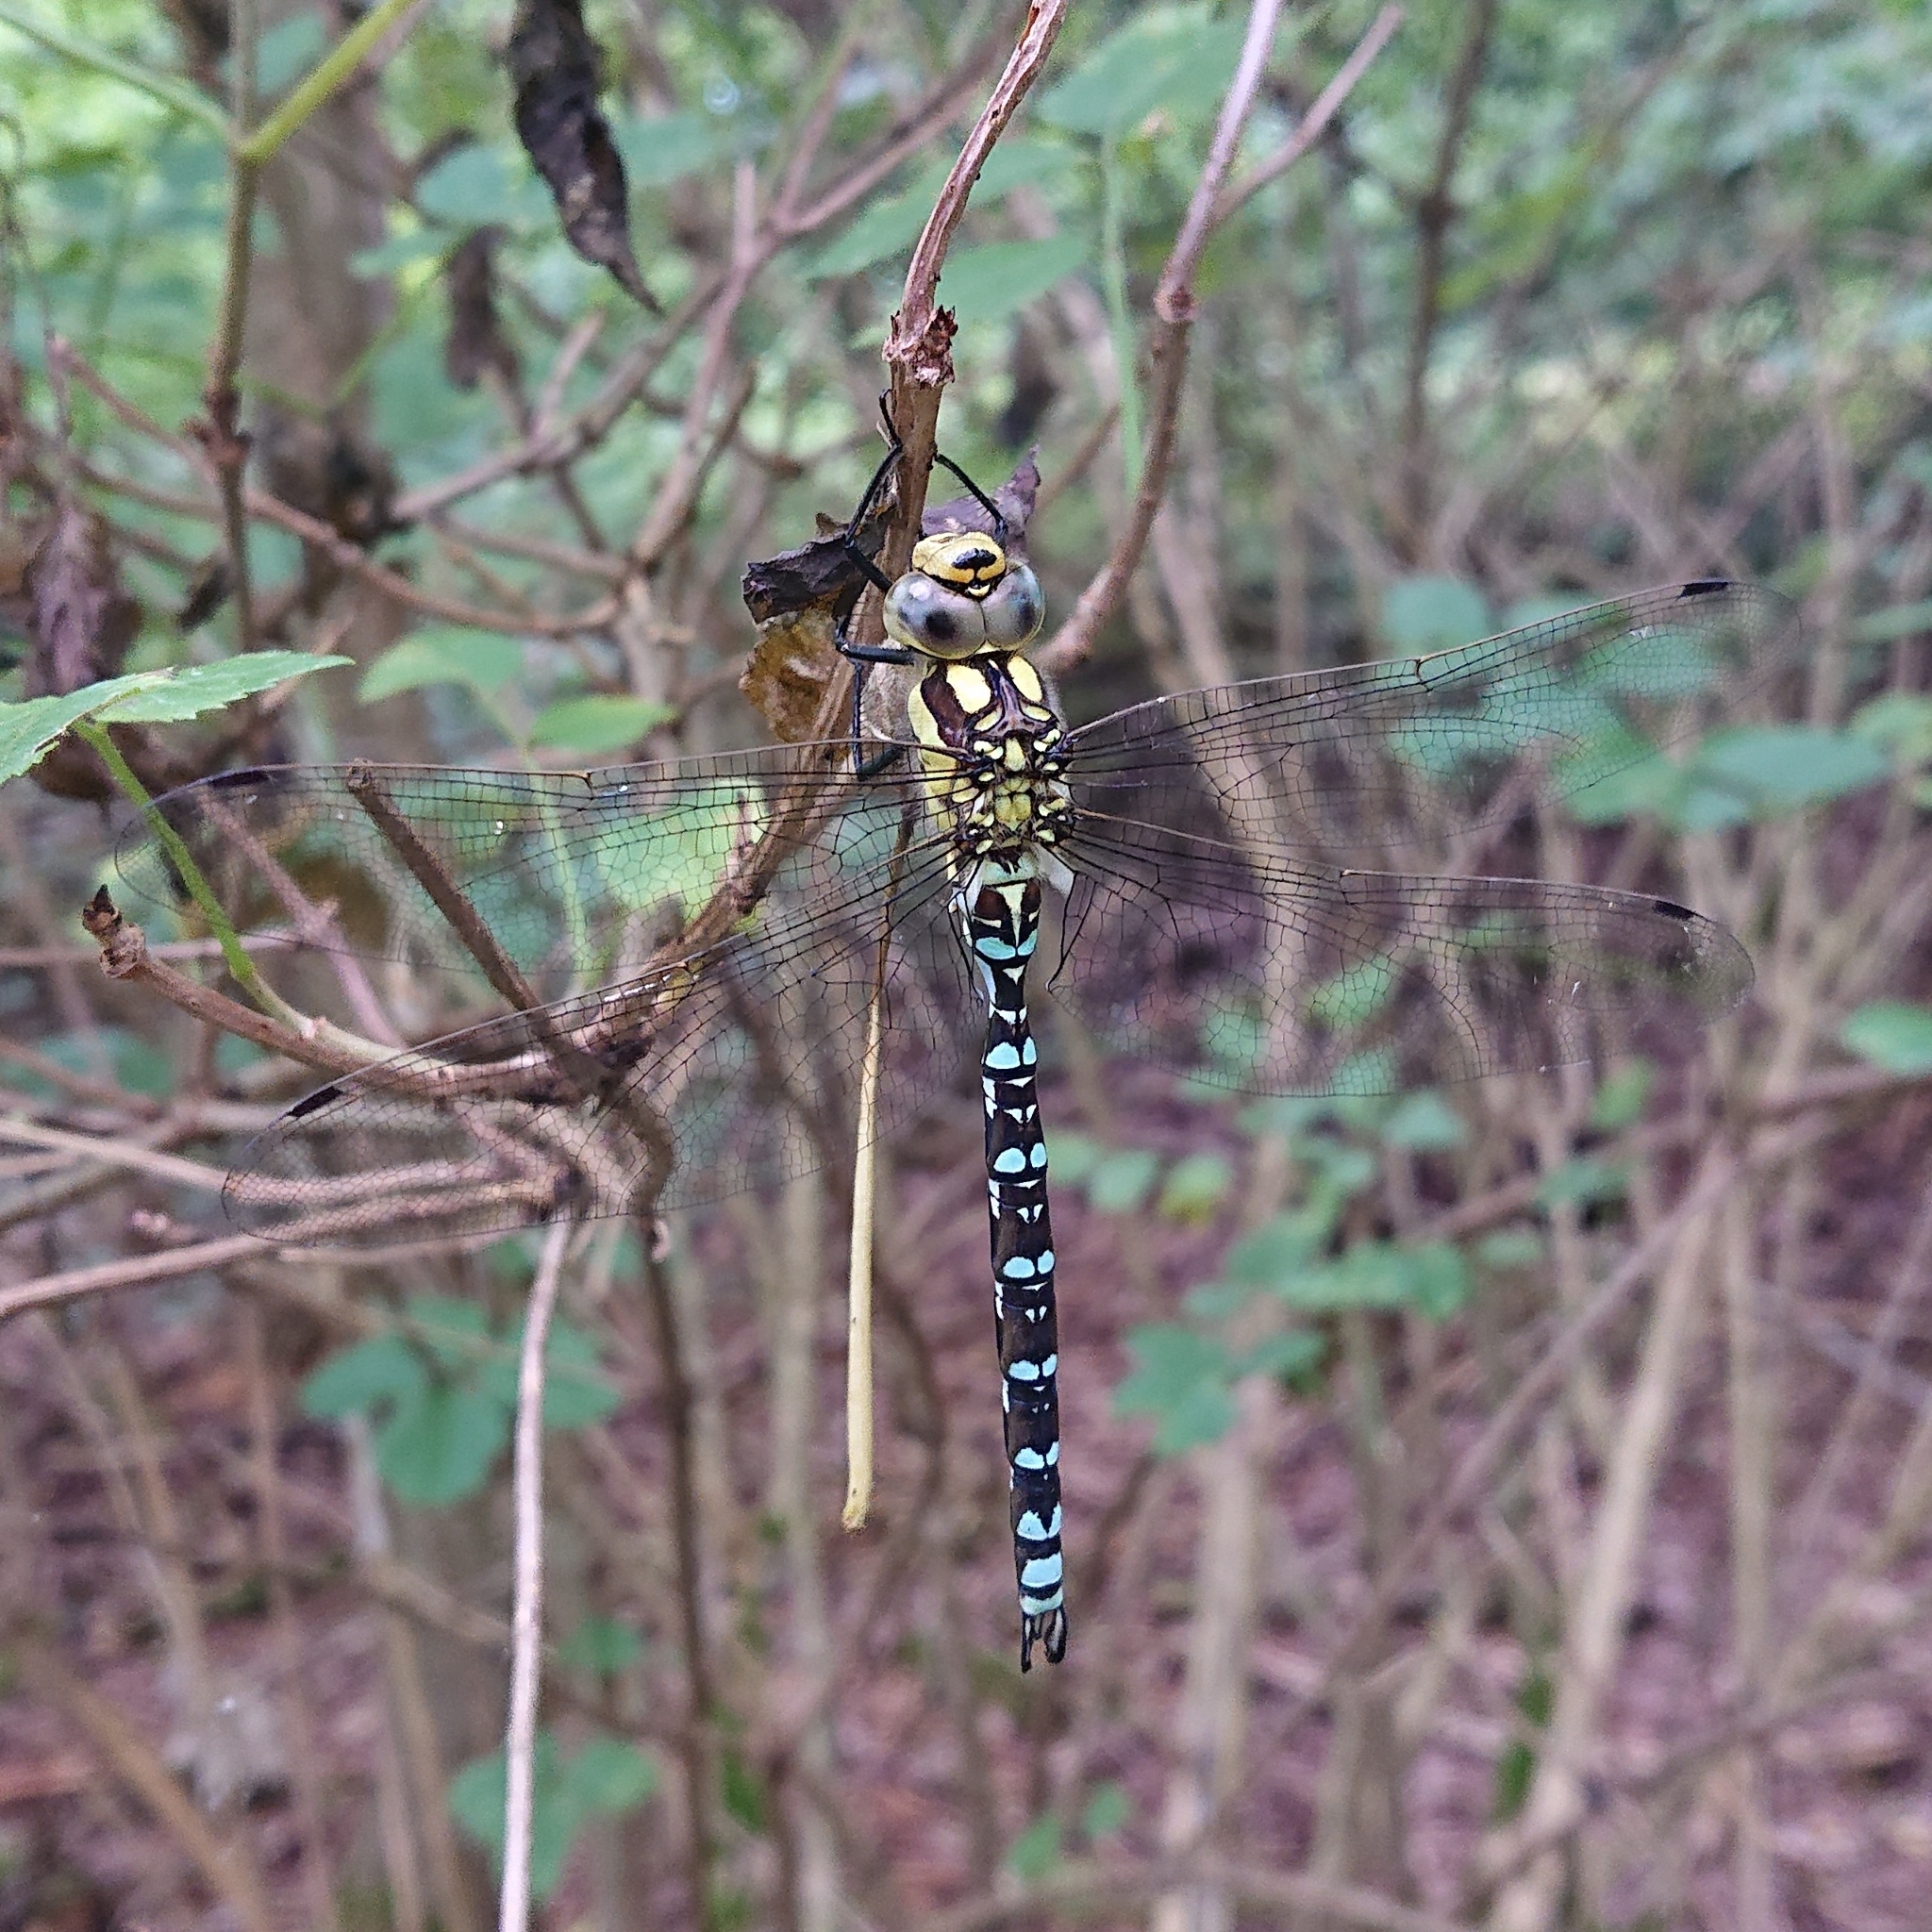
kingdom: Animalia
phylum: Arthropoda
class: Insecta
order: Odonata
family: Aeshnidae
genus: Aeshna
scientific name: Aeshna cyanea
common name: Southern hawker
